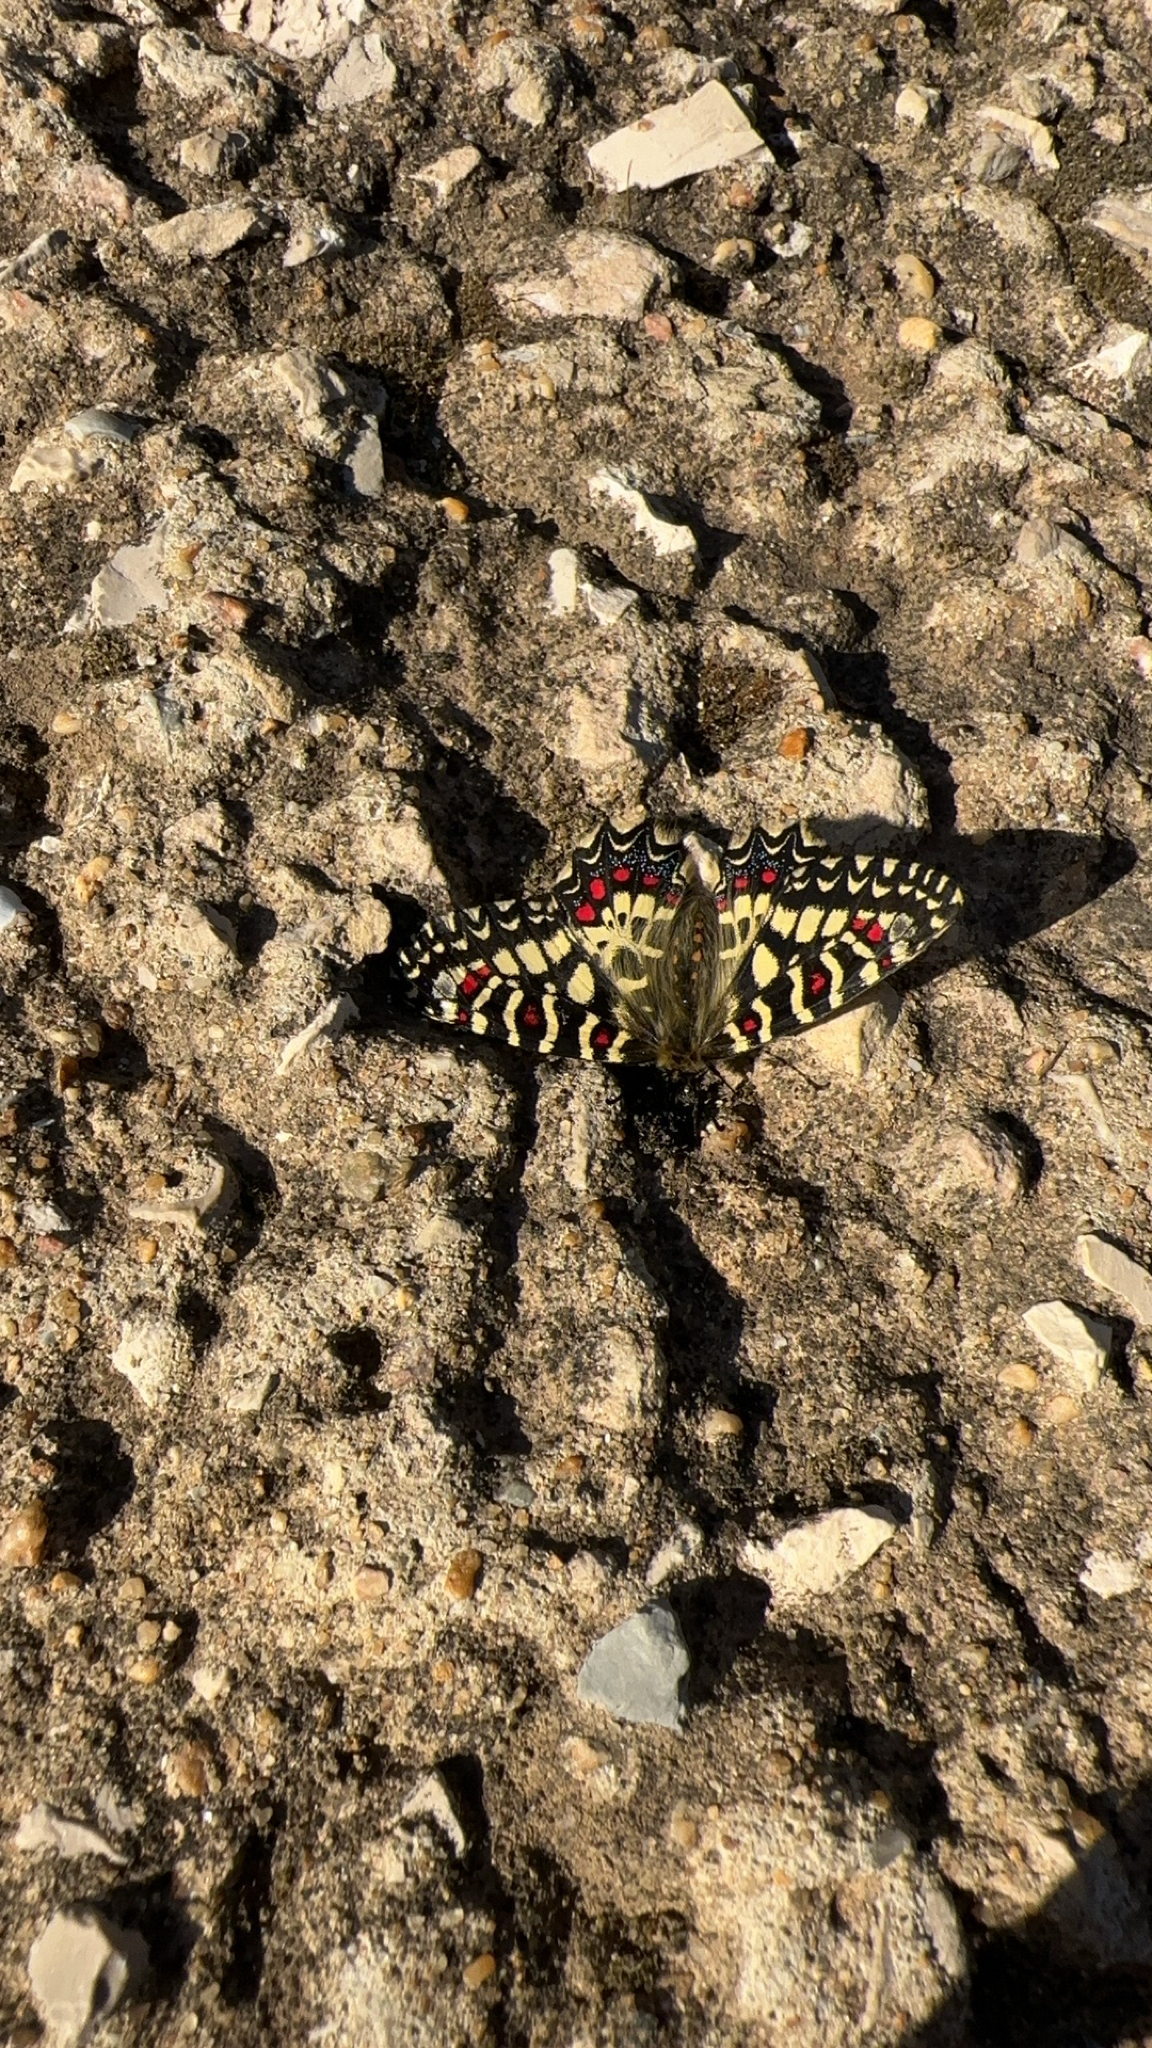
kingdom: Animalia
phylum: Arthropoda
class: Insecta
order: Lepidoptera
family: Papilionidae
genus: Zerynthia
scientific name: Zerynthia rumina
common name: Spanish festoon
